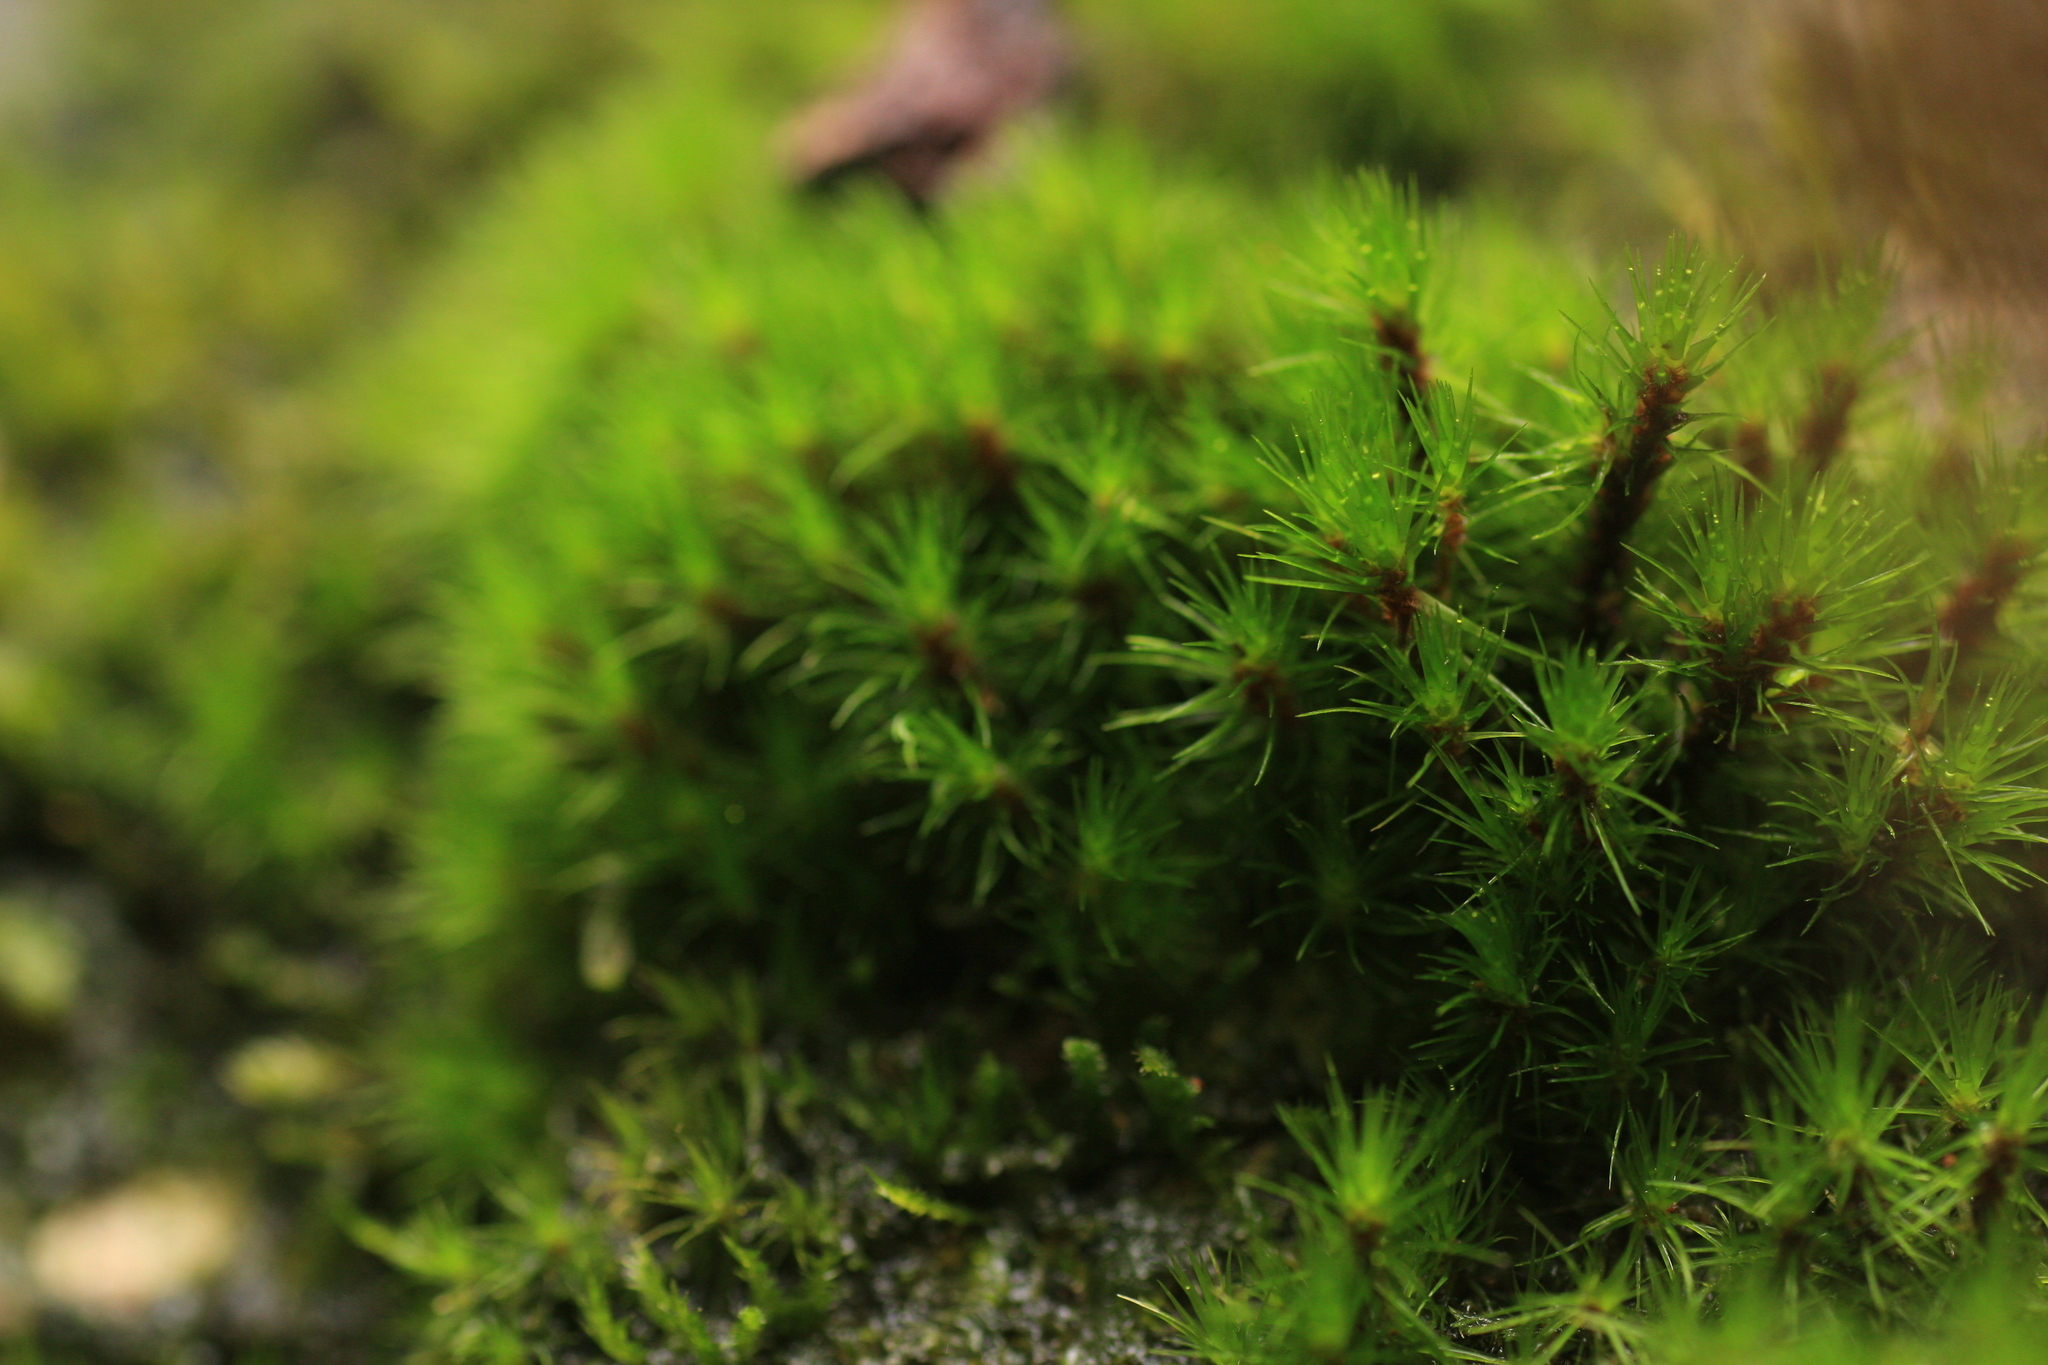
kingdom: Plantae
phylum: Bryophyta
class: Bryopsida
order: Bartramiales
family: Bartramiaceae
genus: Breutelia
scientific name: Breutelia dicranacea
